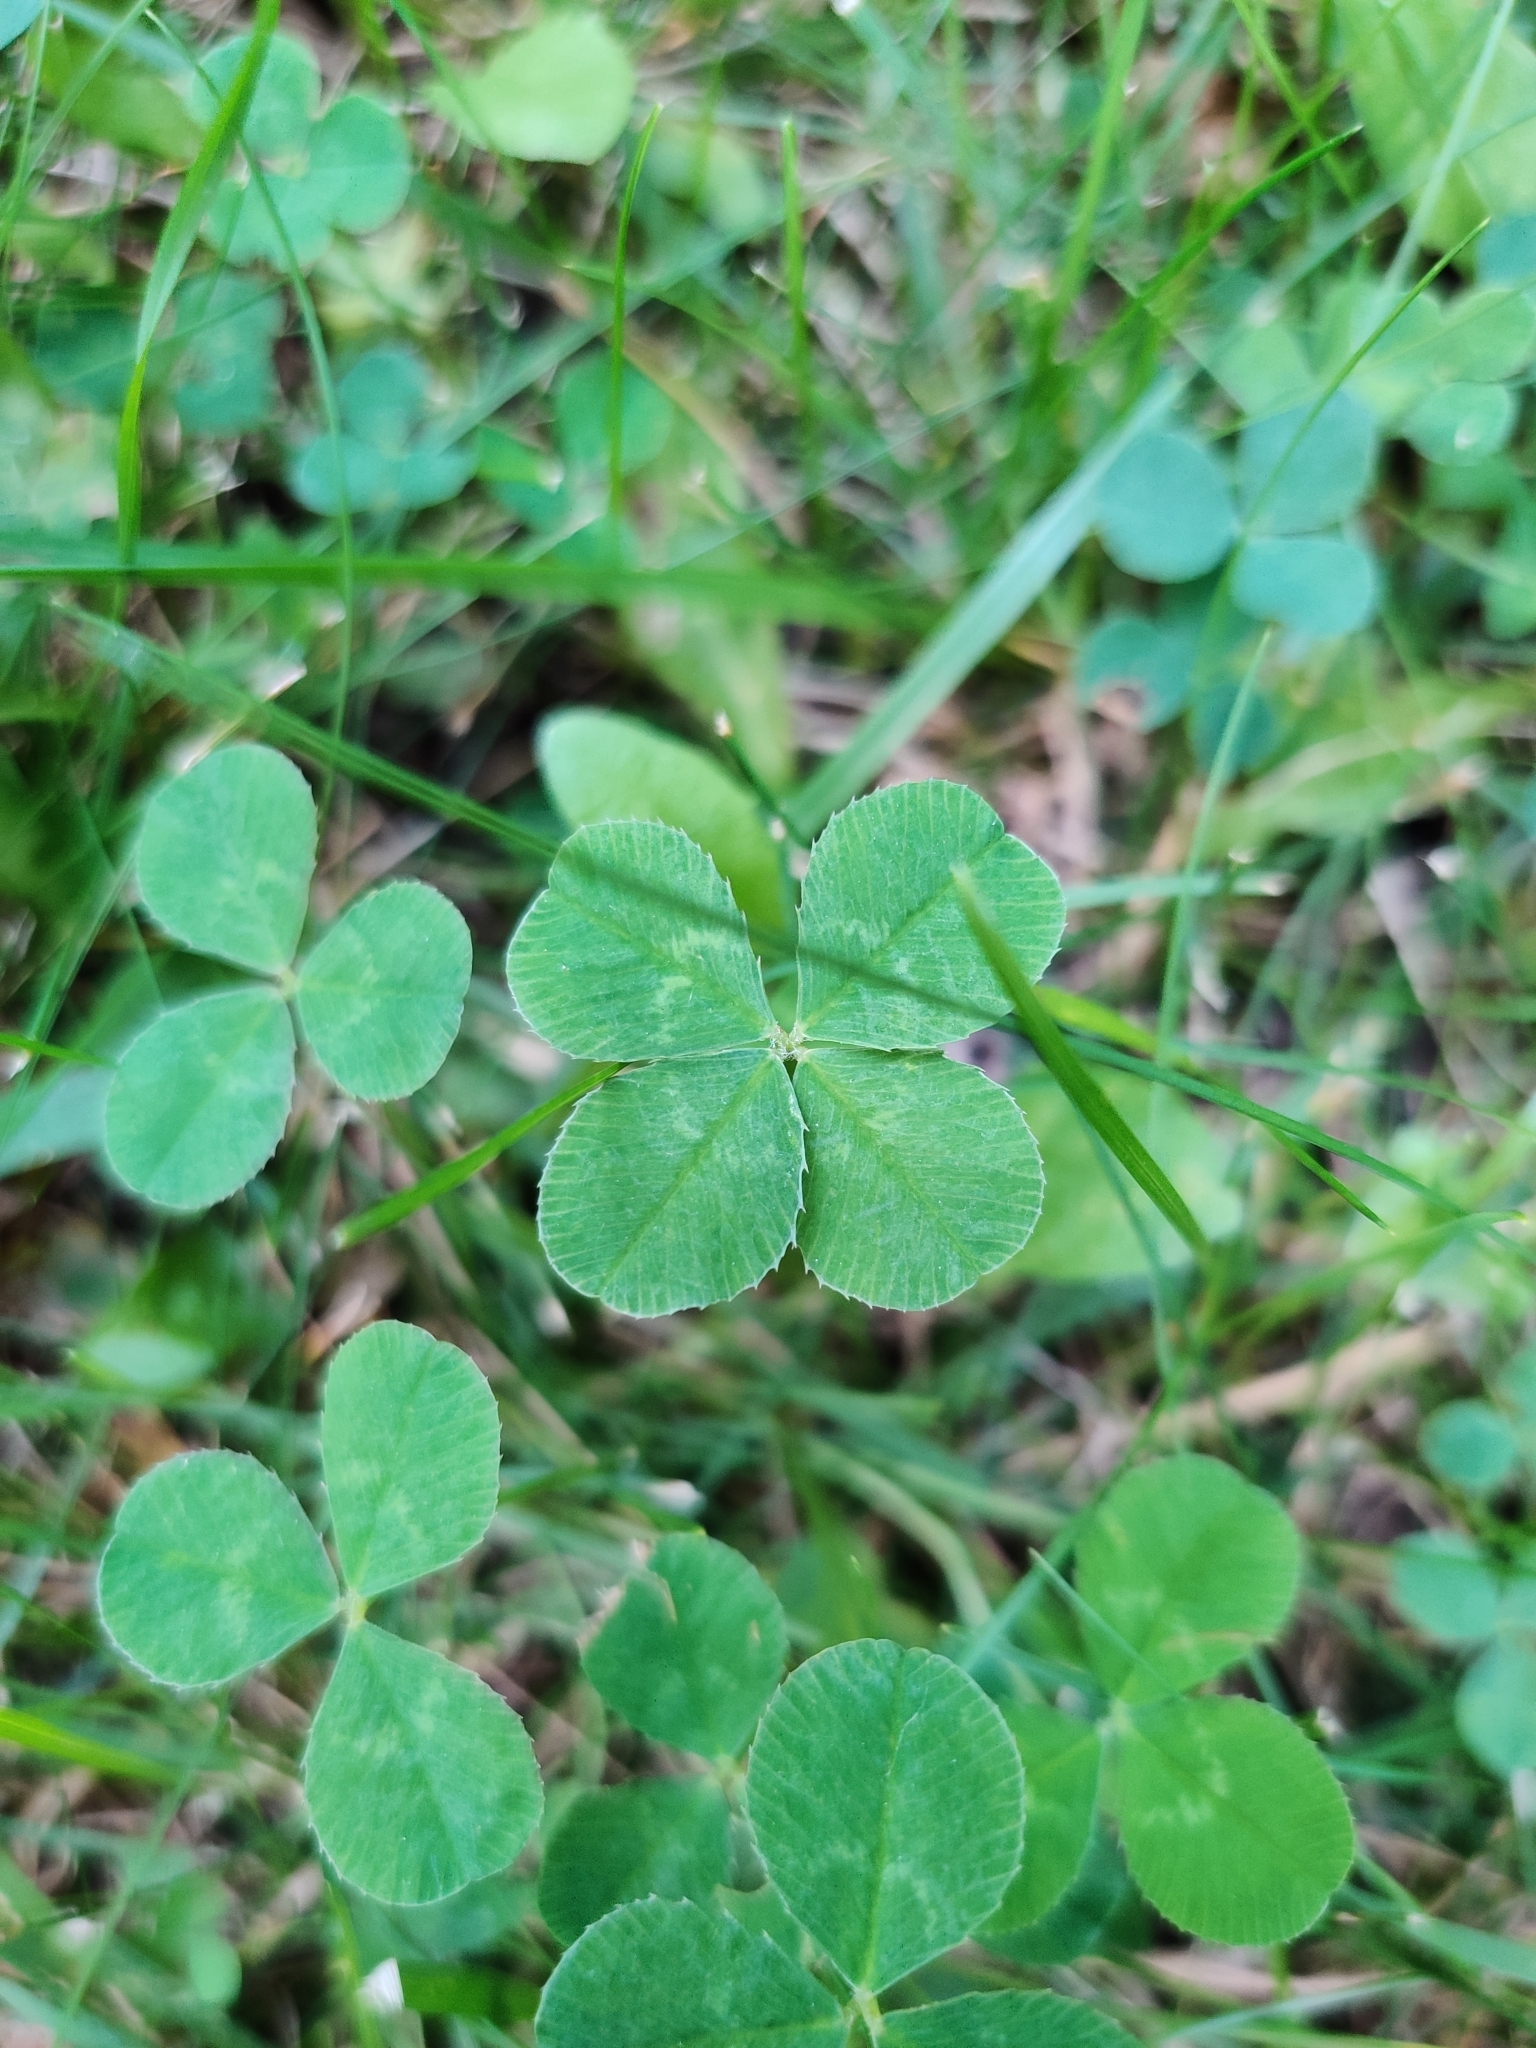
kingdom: Plantae
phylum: Tracheophyta
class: Magnoliopsida
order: Fabales
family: Fabaceae
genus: Trifolium
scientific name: Trifolium repens
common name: White clover
